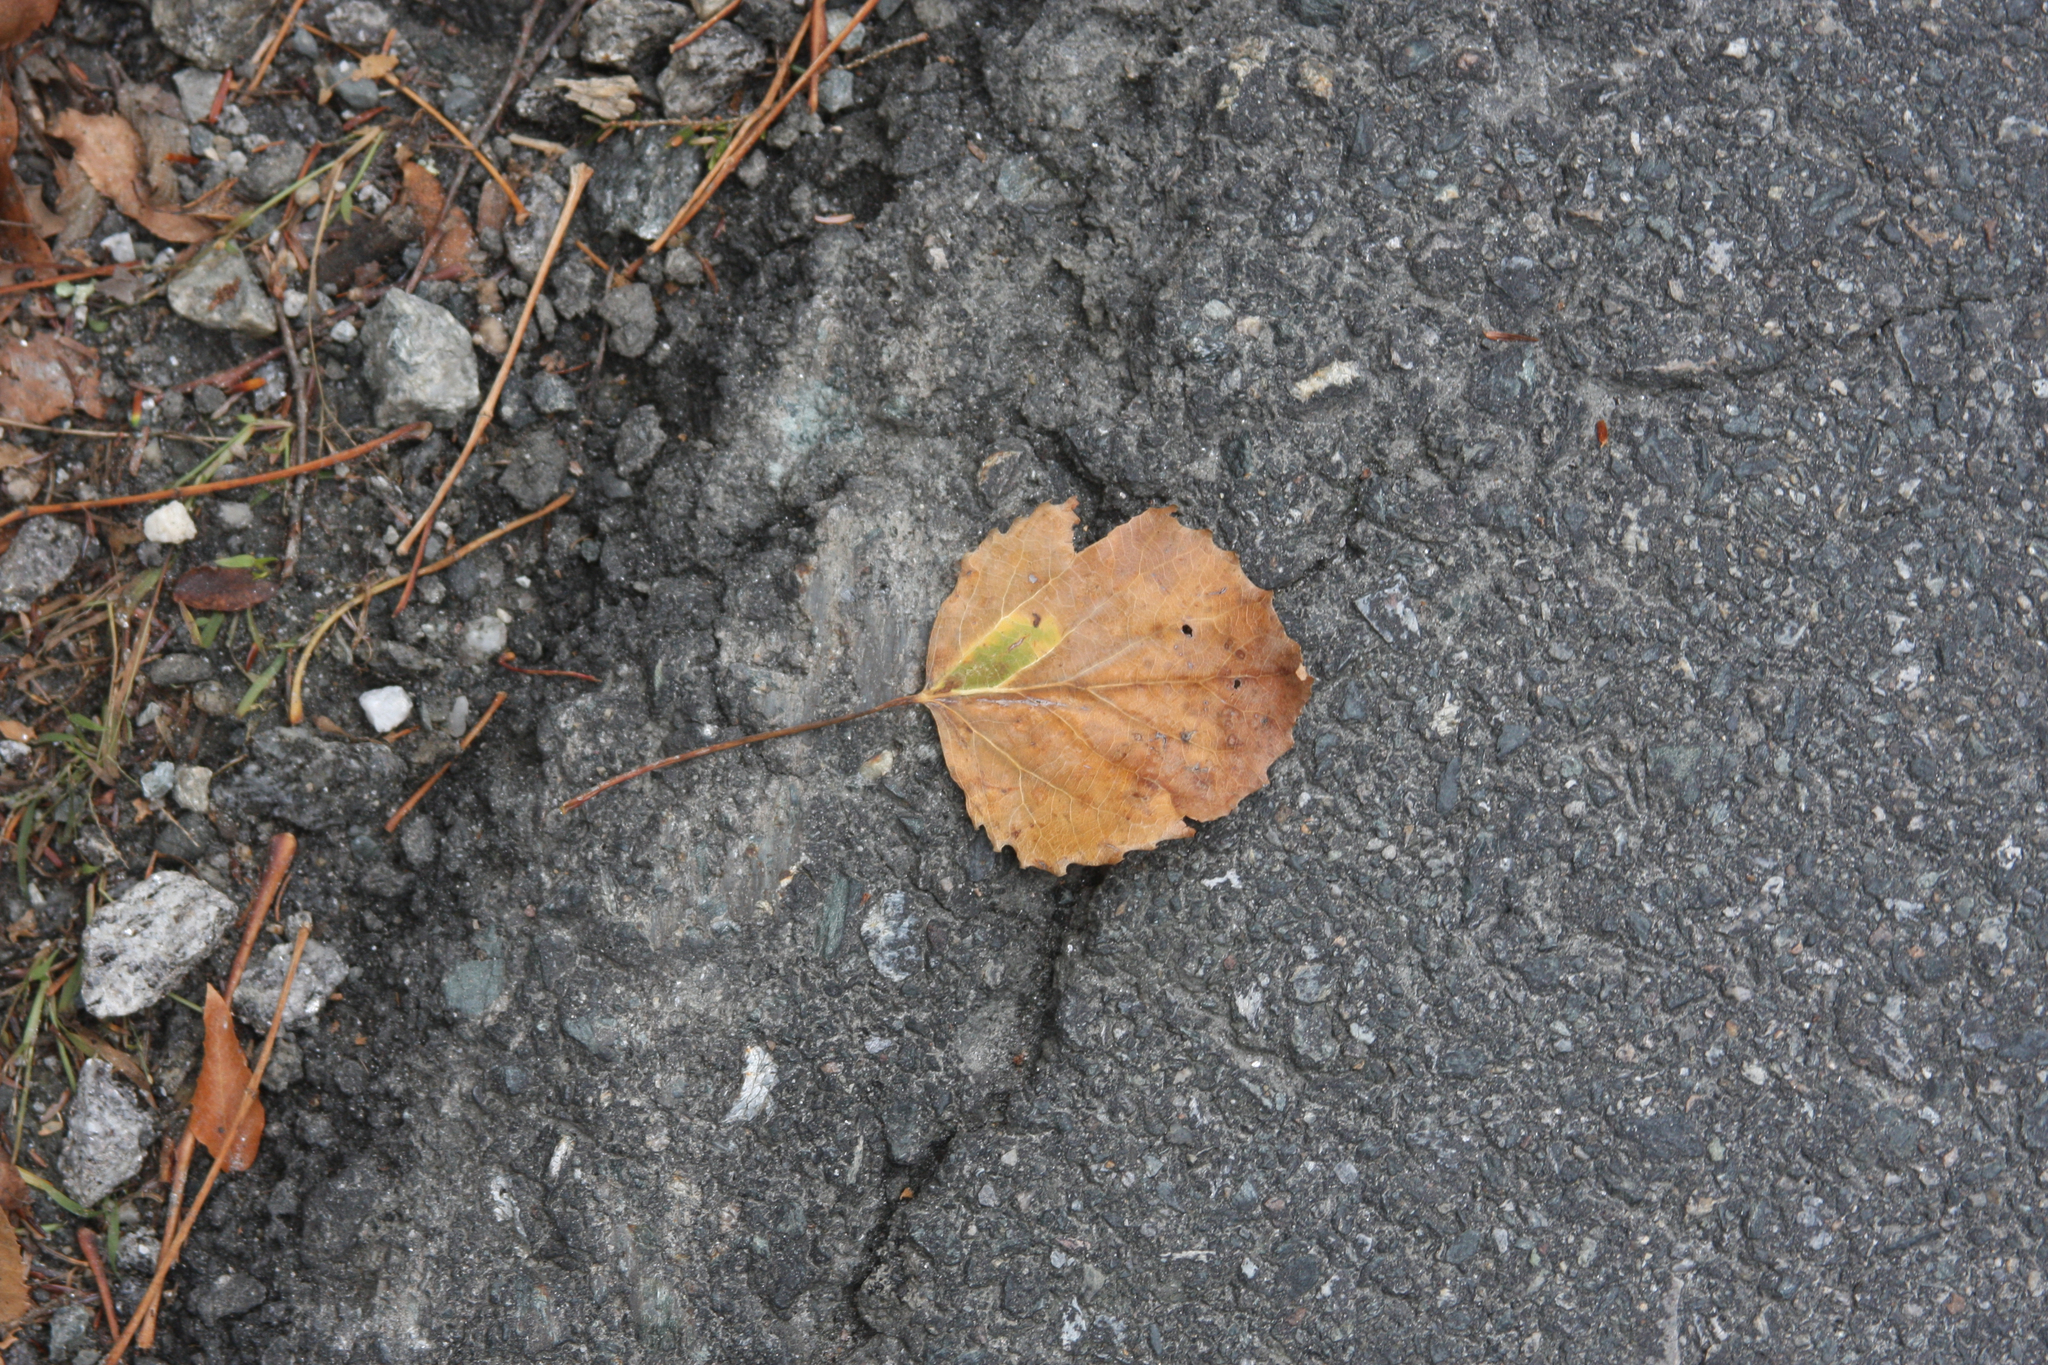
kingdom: Plantae
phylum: Tracheophyta
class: Magnoliopsida
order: Malpighiales
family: Salicaceae
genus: Populus
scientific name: Populus grandidentata
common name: Bigtooth aspen
